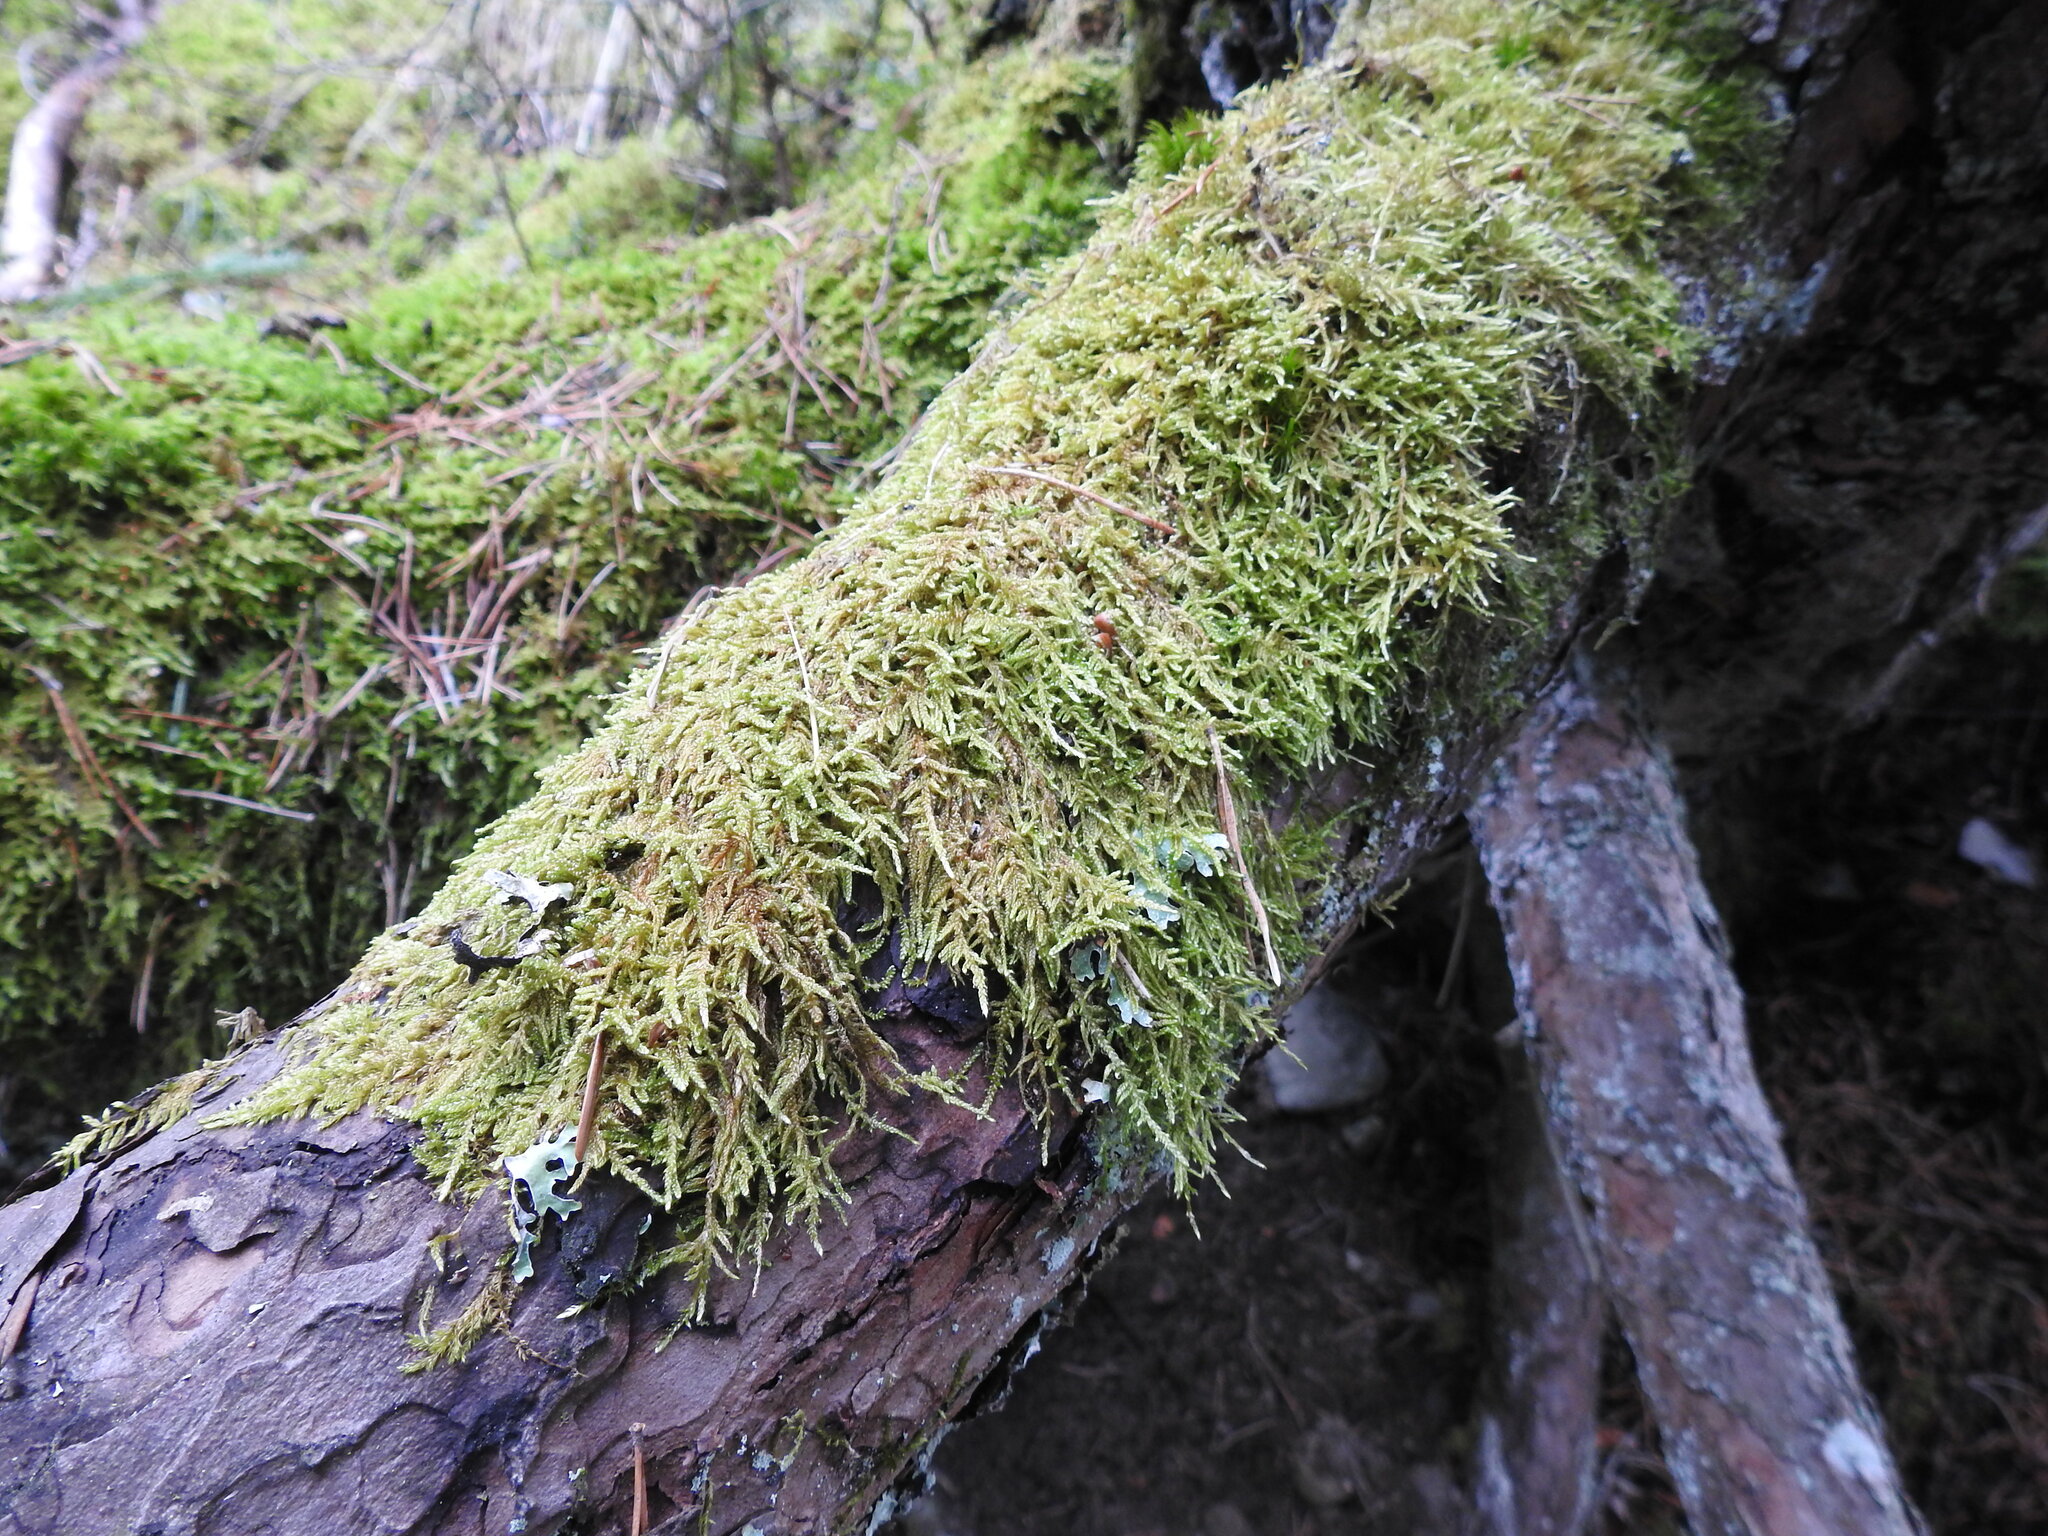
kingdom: Plantae
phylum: Bryophyta
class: Bryopsida
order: Hypnales
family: Hypnaceae
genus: Hypnum
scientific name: Hypnum cupressiforme
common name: Cypress-leaved plait-moss
